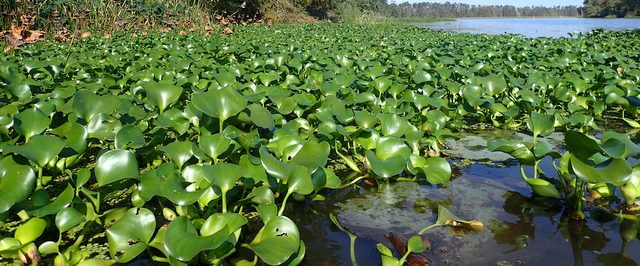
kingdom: Plantae
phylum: Tracheophyta
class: Liliopsida
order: Commelinales
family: Pontederiaceae
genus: Pontederia
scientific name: Pontederia crassipes
